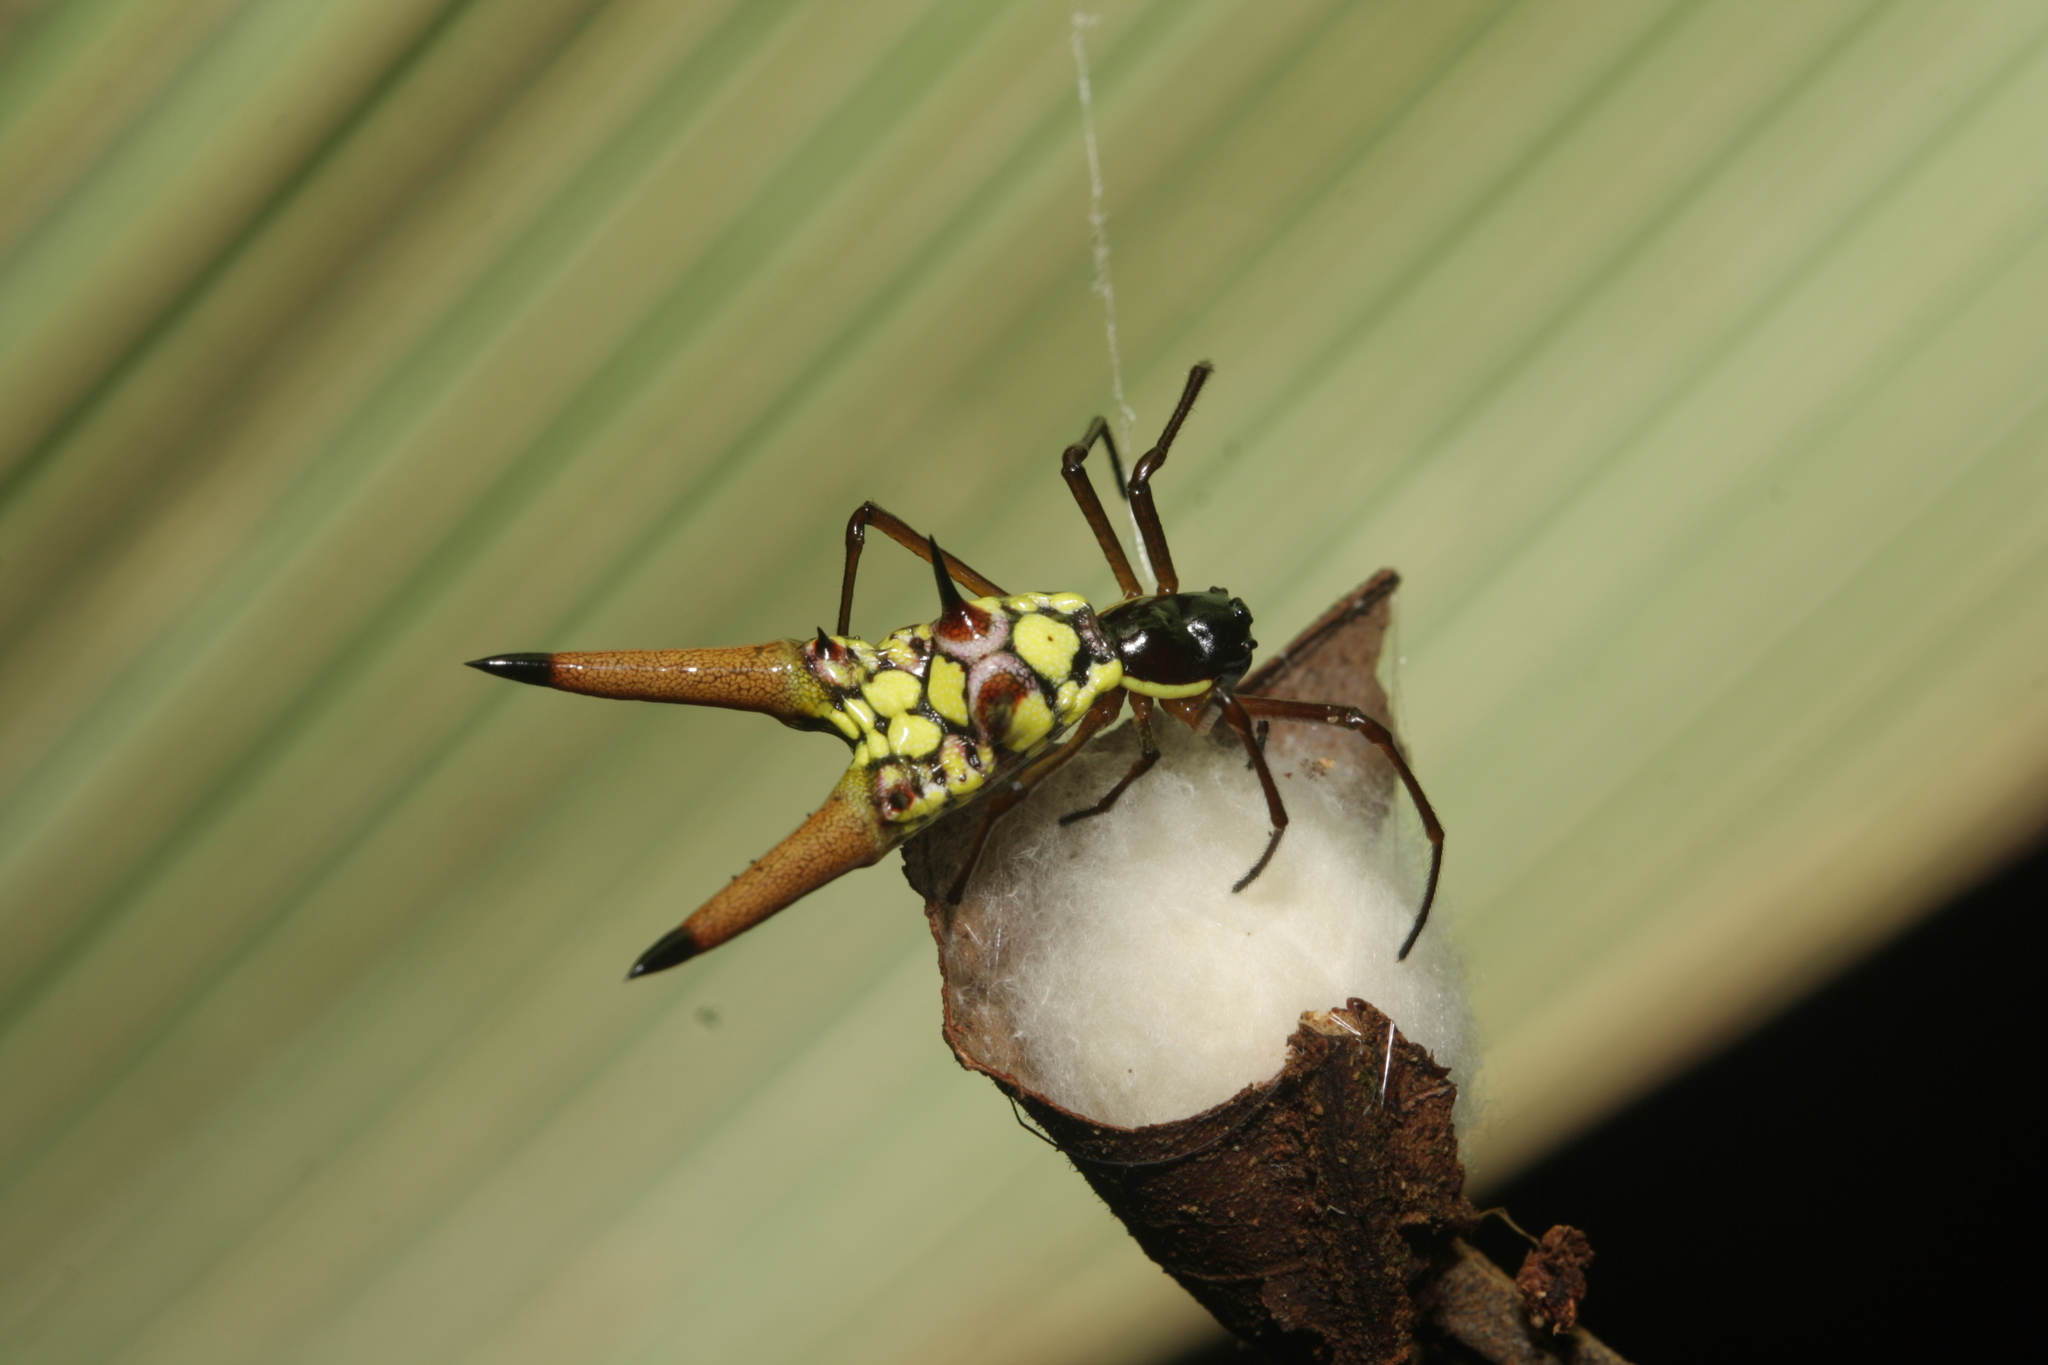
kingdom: Animalia
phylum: Arthropoda
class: Arachnida
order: Araneae
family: Araneidae
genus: Micrathena
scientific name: Micrathena brevipes
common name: Orb weavers
